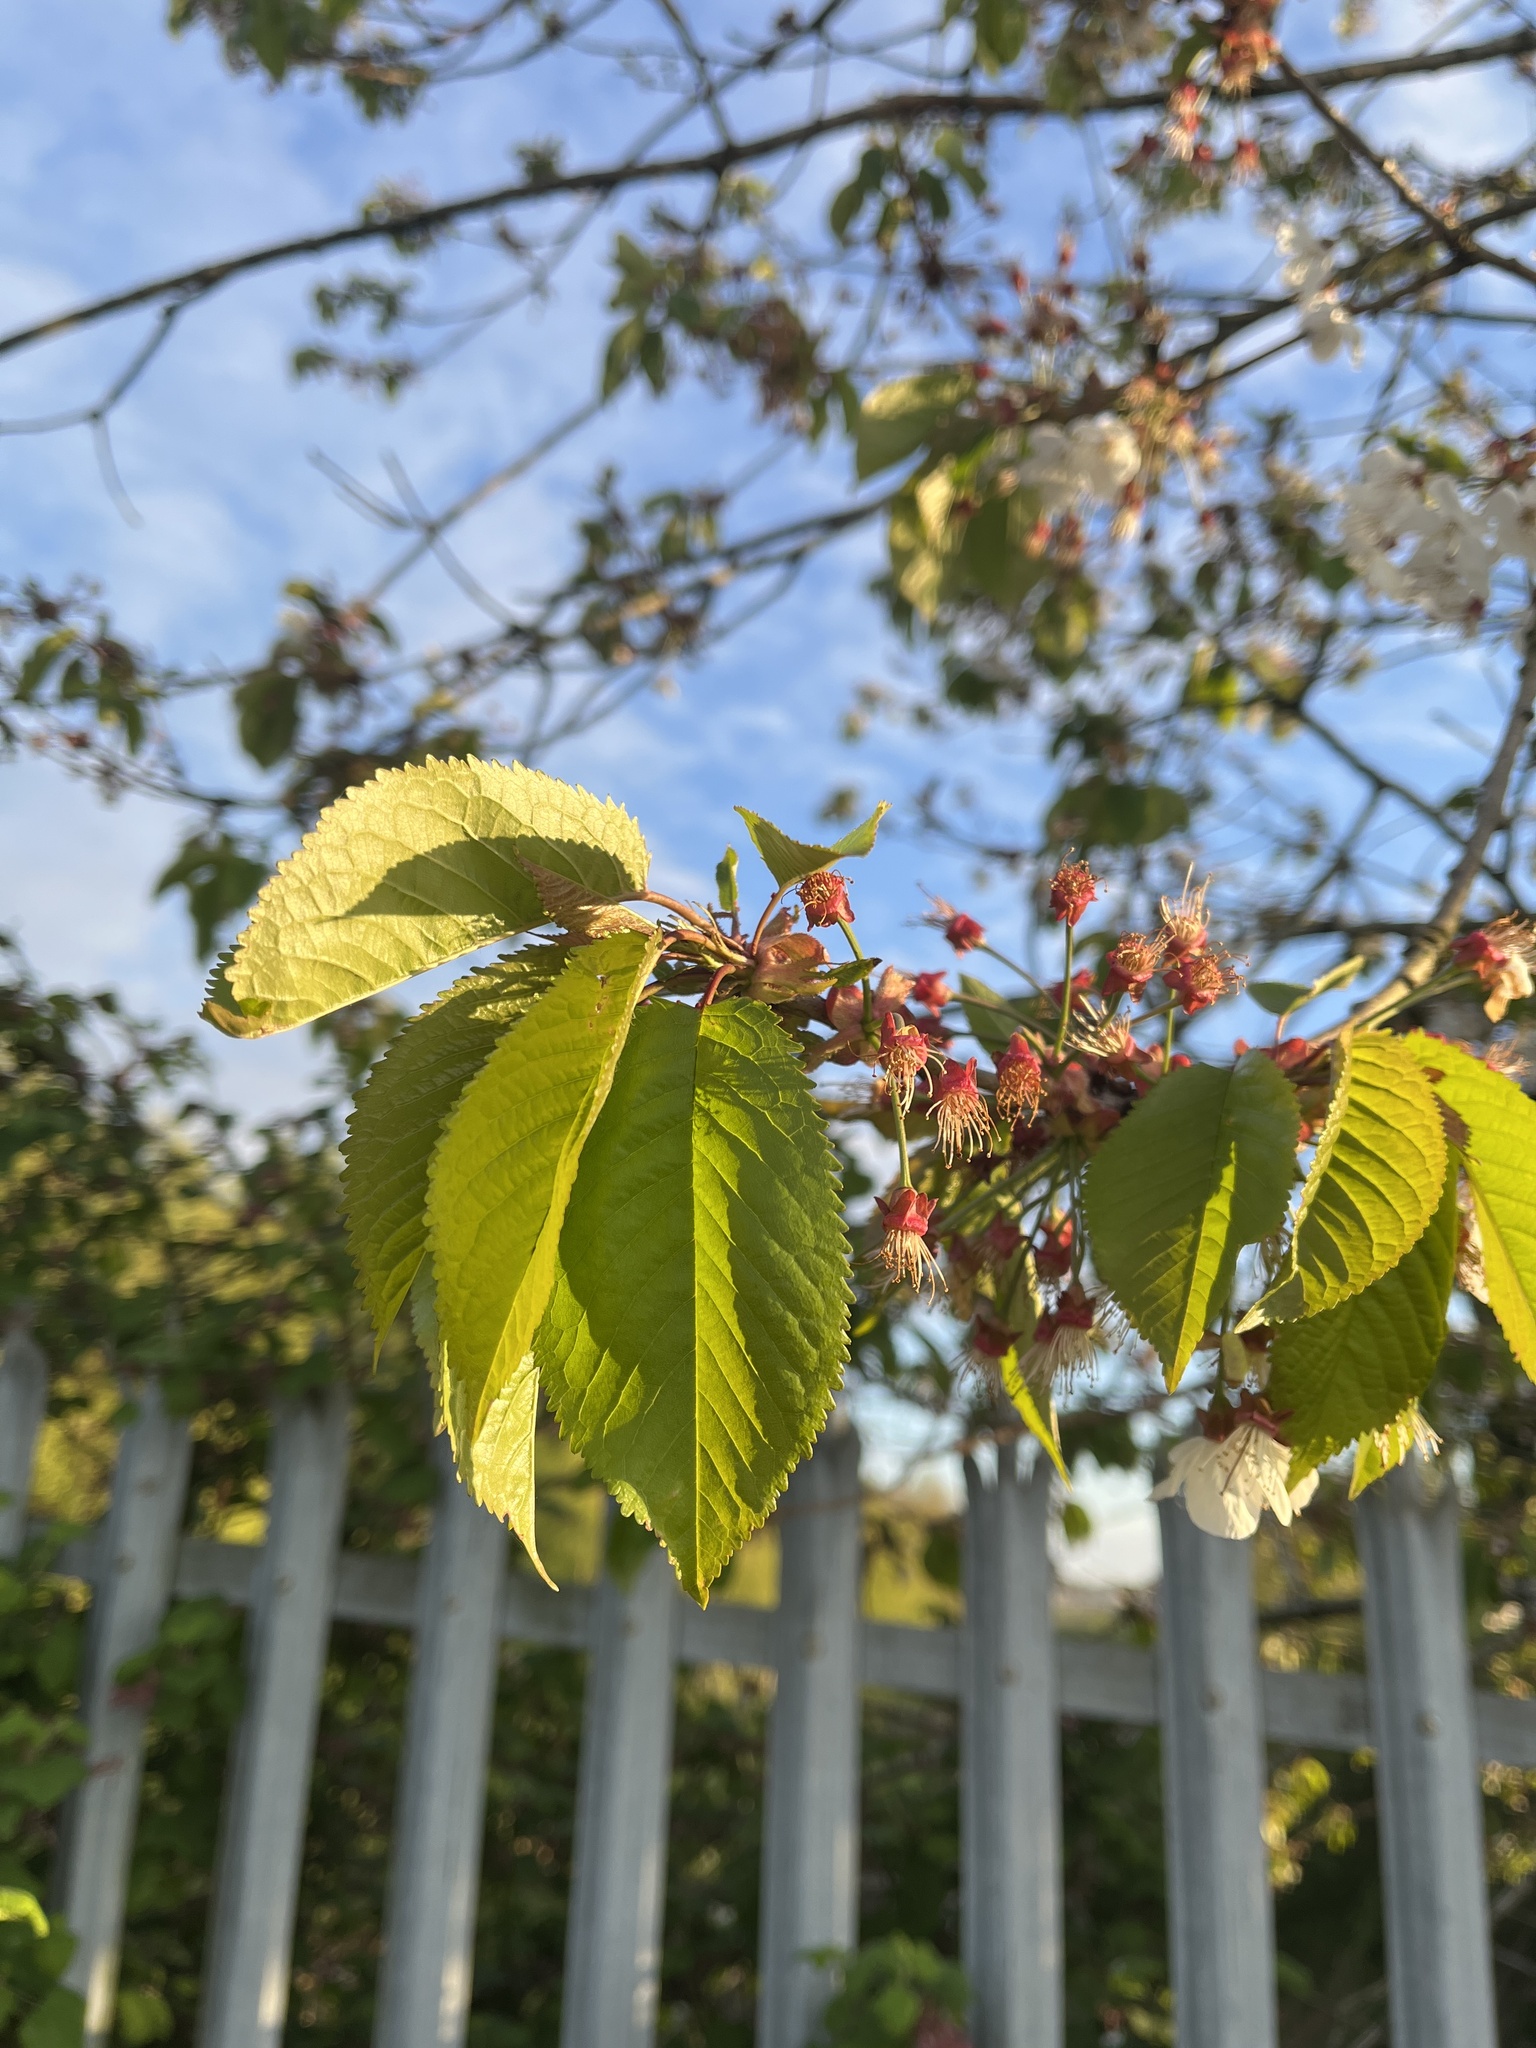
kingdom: Plantae
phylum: Tracheophyta
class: Magnoliopsida
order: Rosales
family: Rosaceae
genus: Prunus
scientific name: Prunus avium
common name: Sweet cherry
